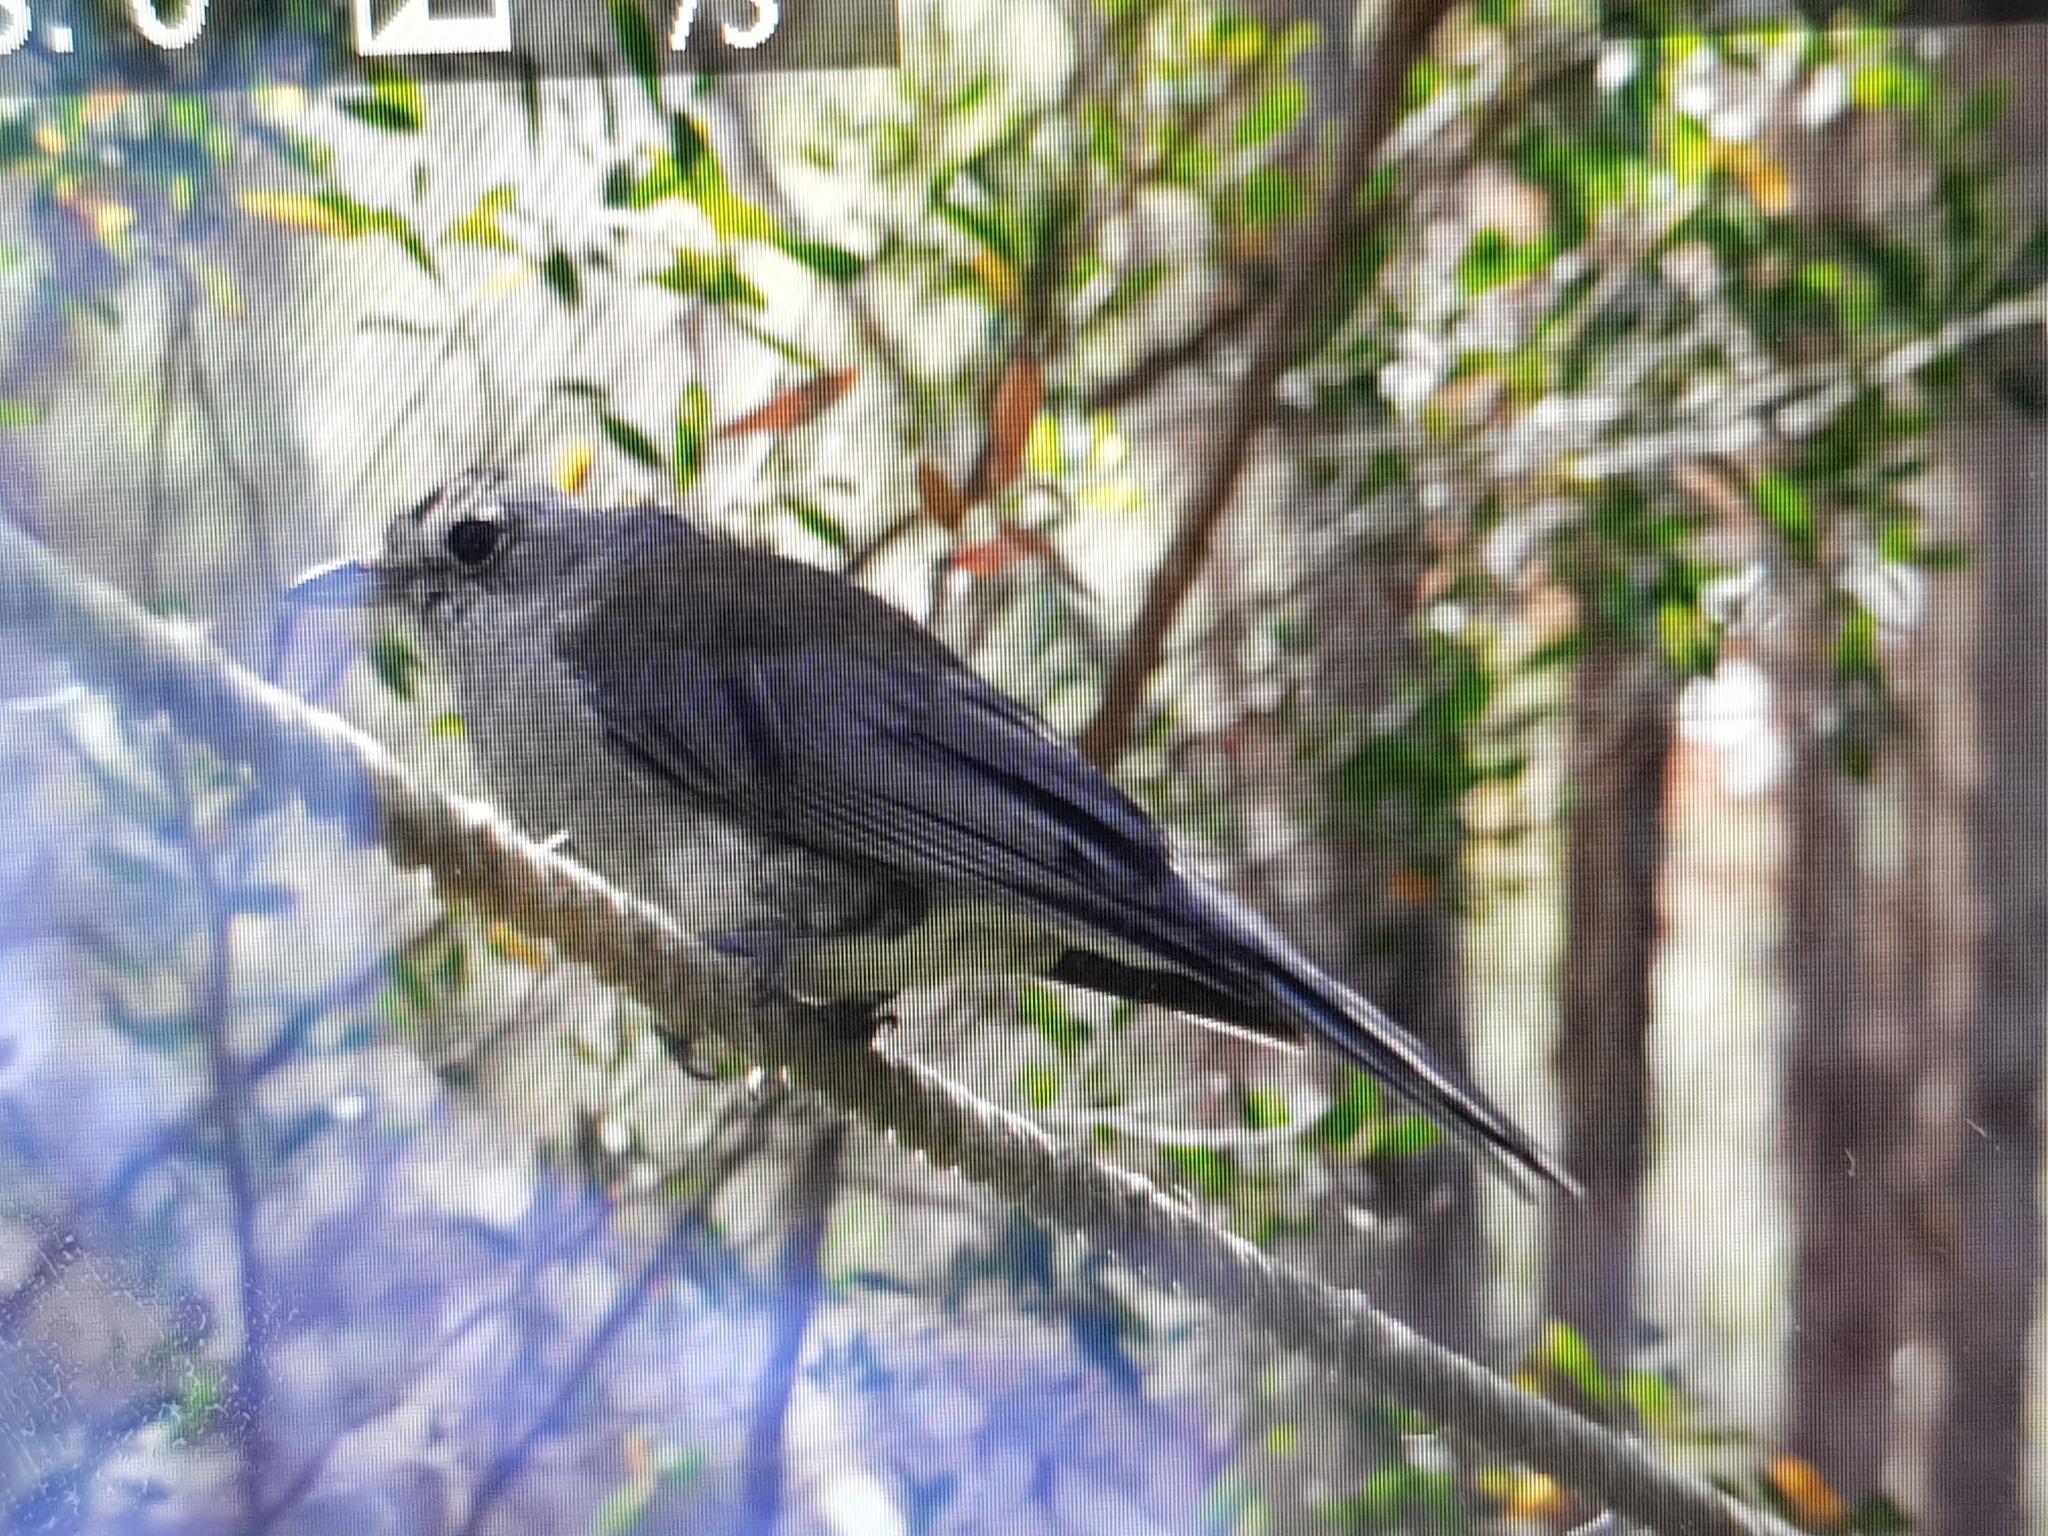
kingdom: Animalia
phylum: Chordata
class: Aves
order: Passeriformes
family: Pachycephalidae
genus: Colluricincla
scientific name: Colluricincla harmonica
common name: Grey shrikethrush
